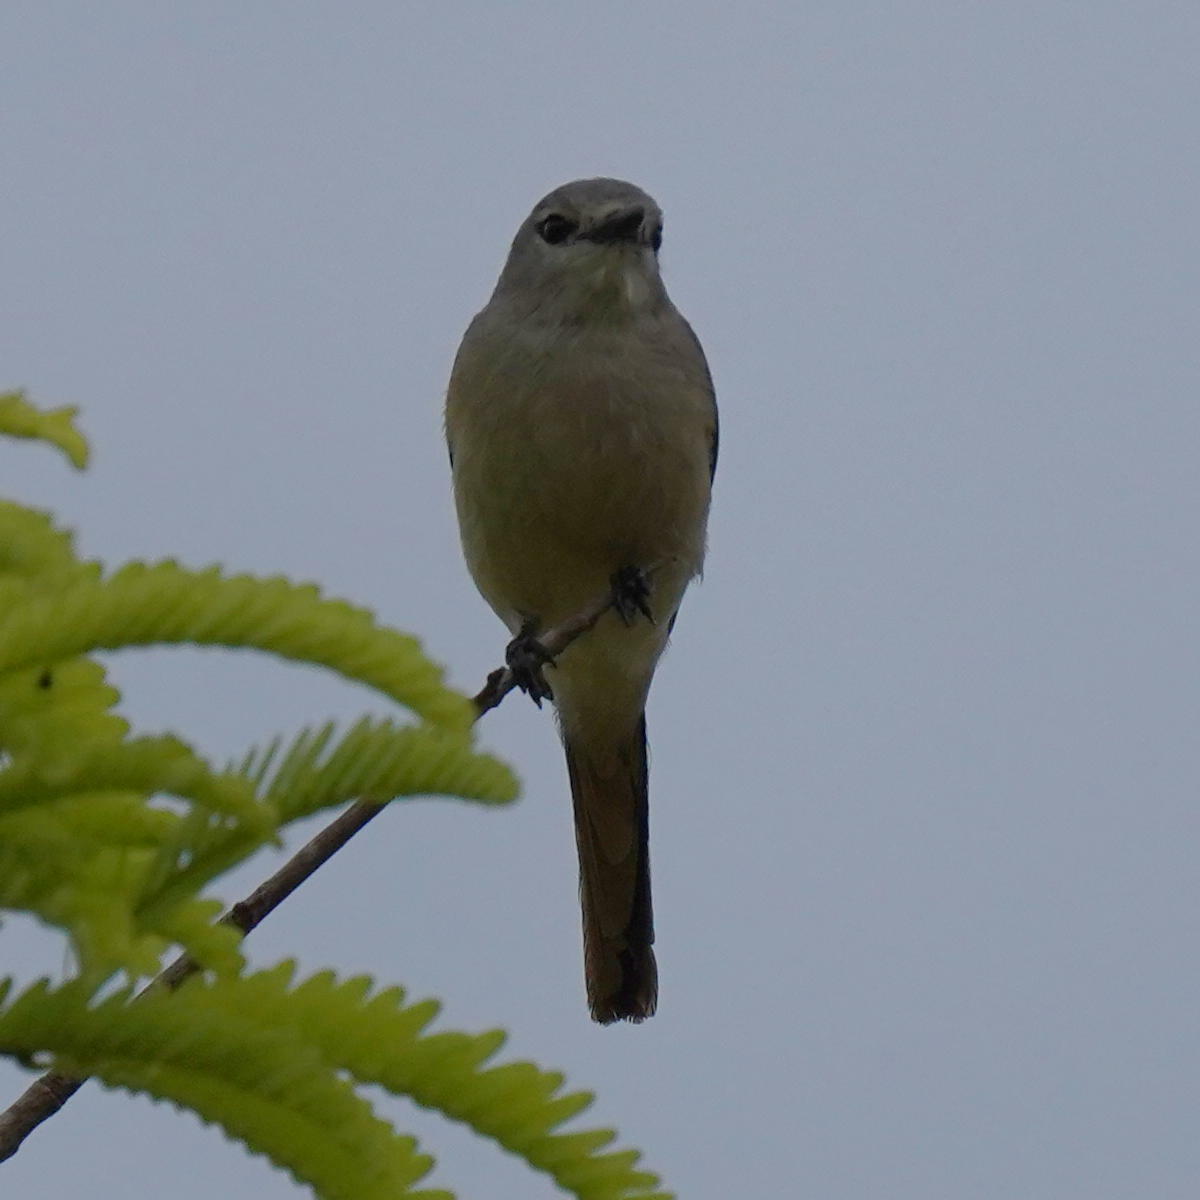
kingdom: Animalia
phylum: Chordata
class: Aves
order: Passeriformes
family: Campephagidae
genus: Pericrocotus
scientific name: Pericrocotus cinnamomeus
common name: Small minivet
